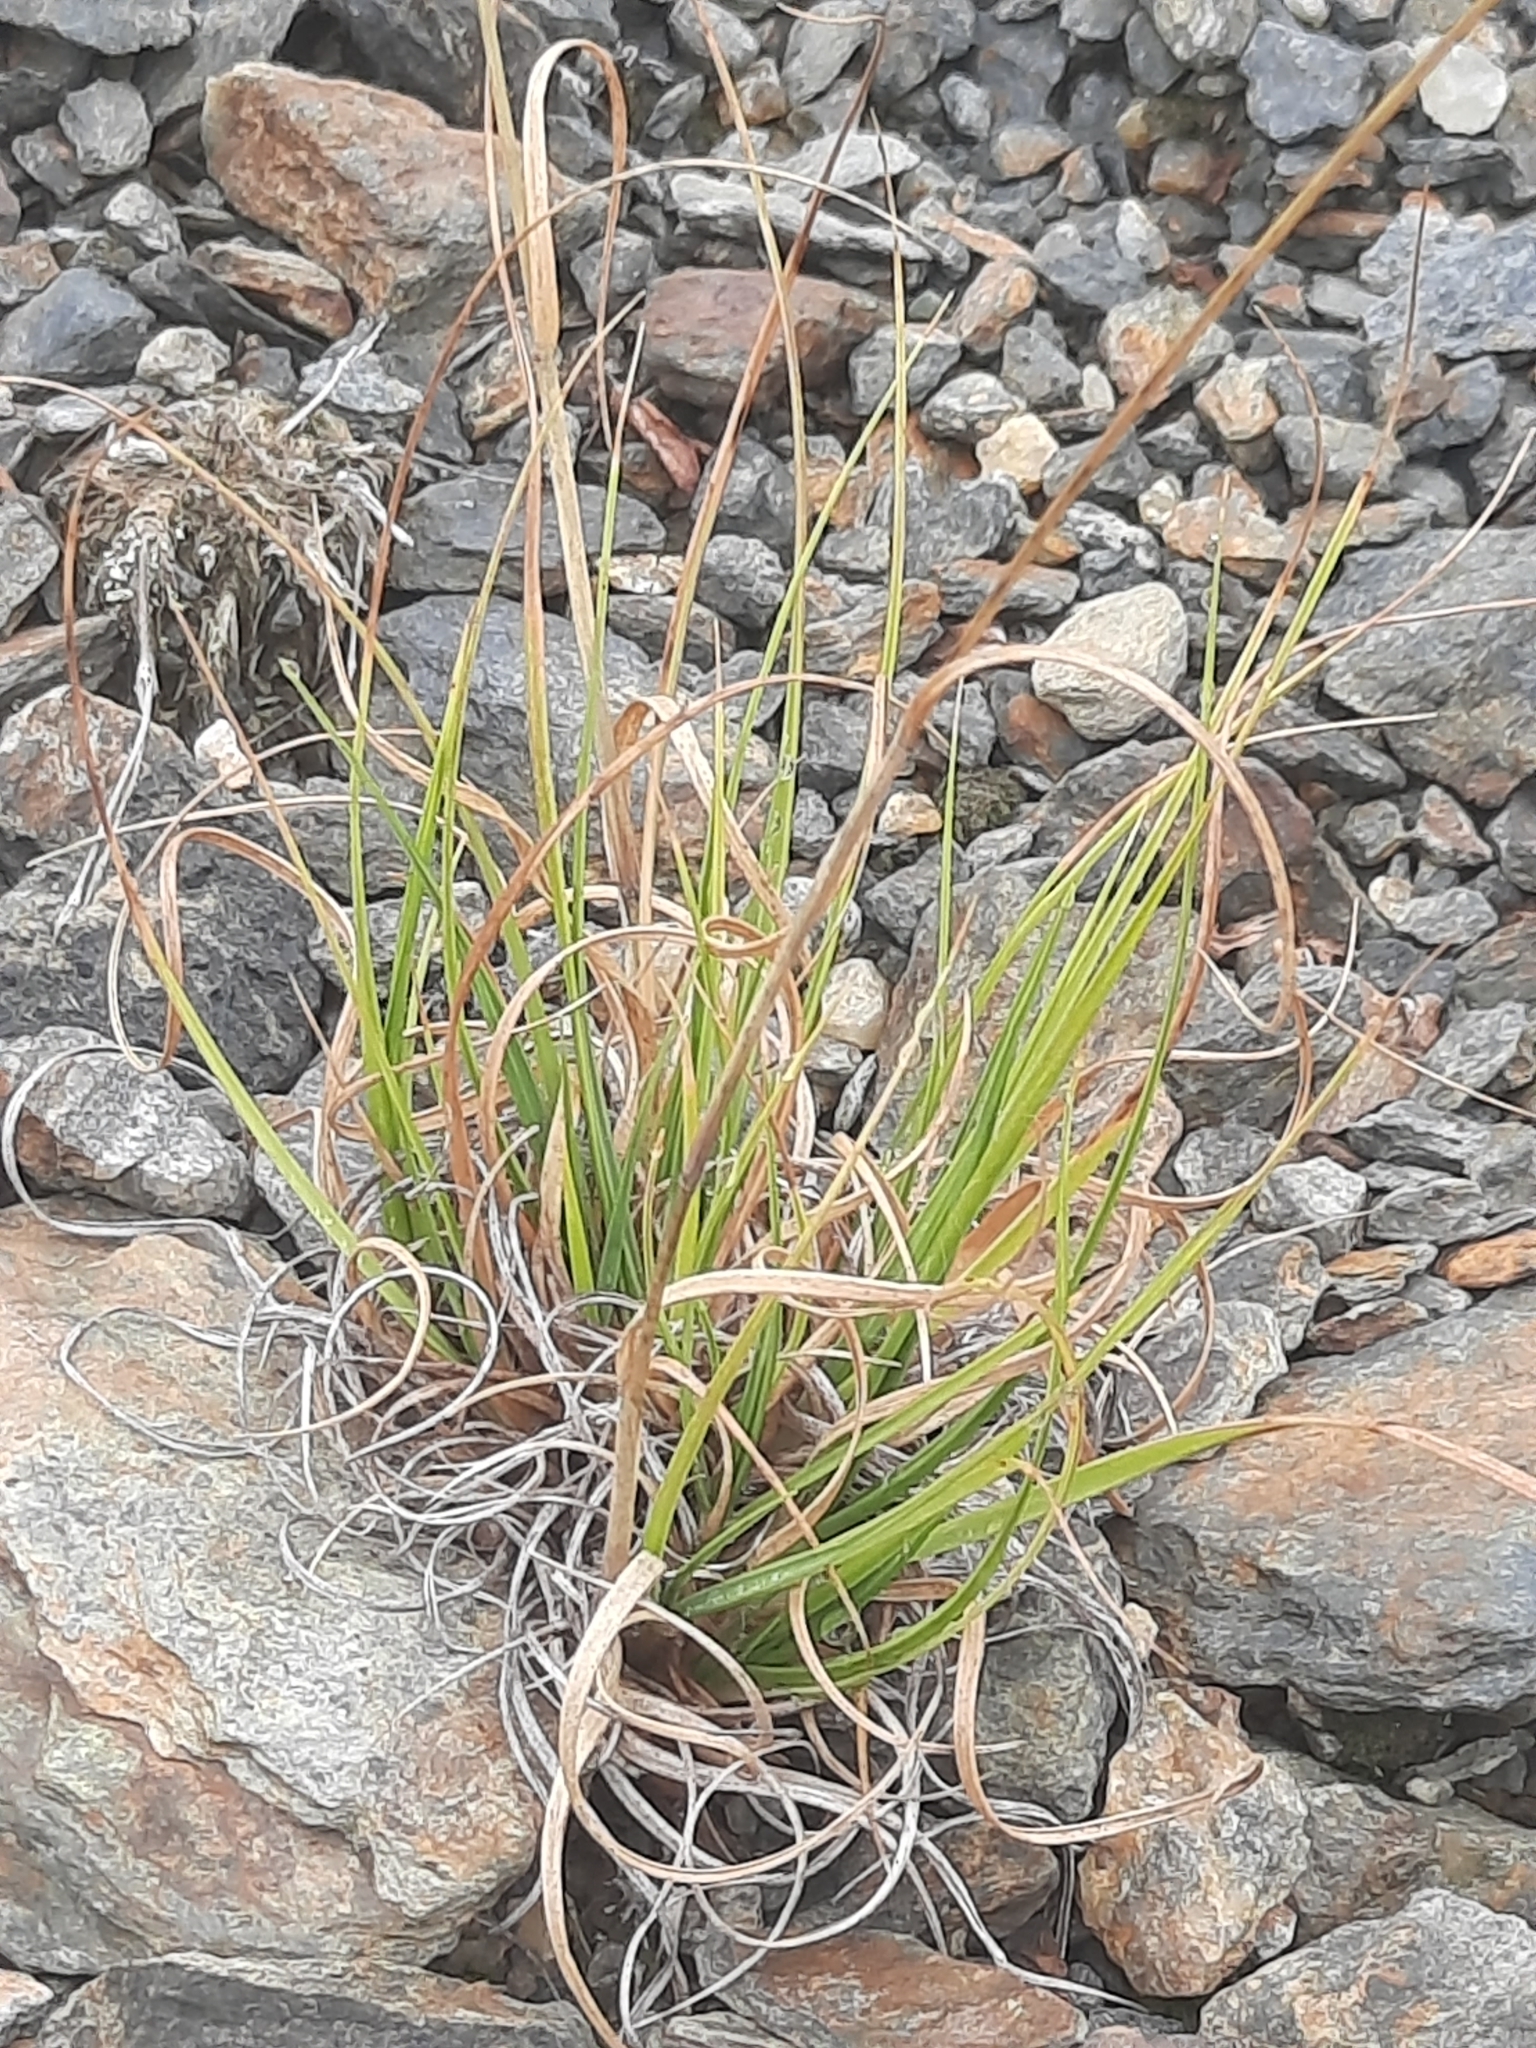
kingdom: Plantae
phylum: Tracheophyta
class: Liliopsida
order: Poales
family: Poaceae
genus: Danthonia
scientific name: Danthonia spicata
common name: Common wild oatgrass
